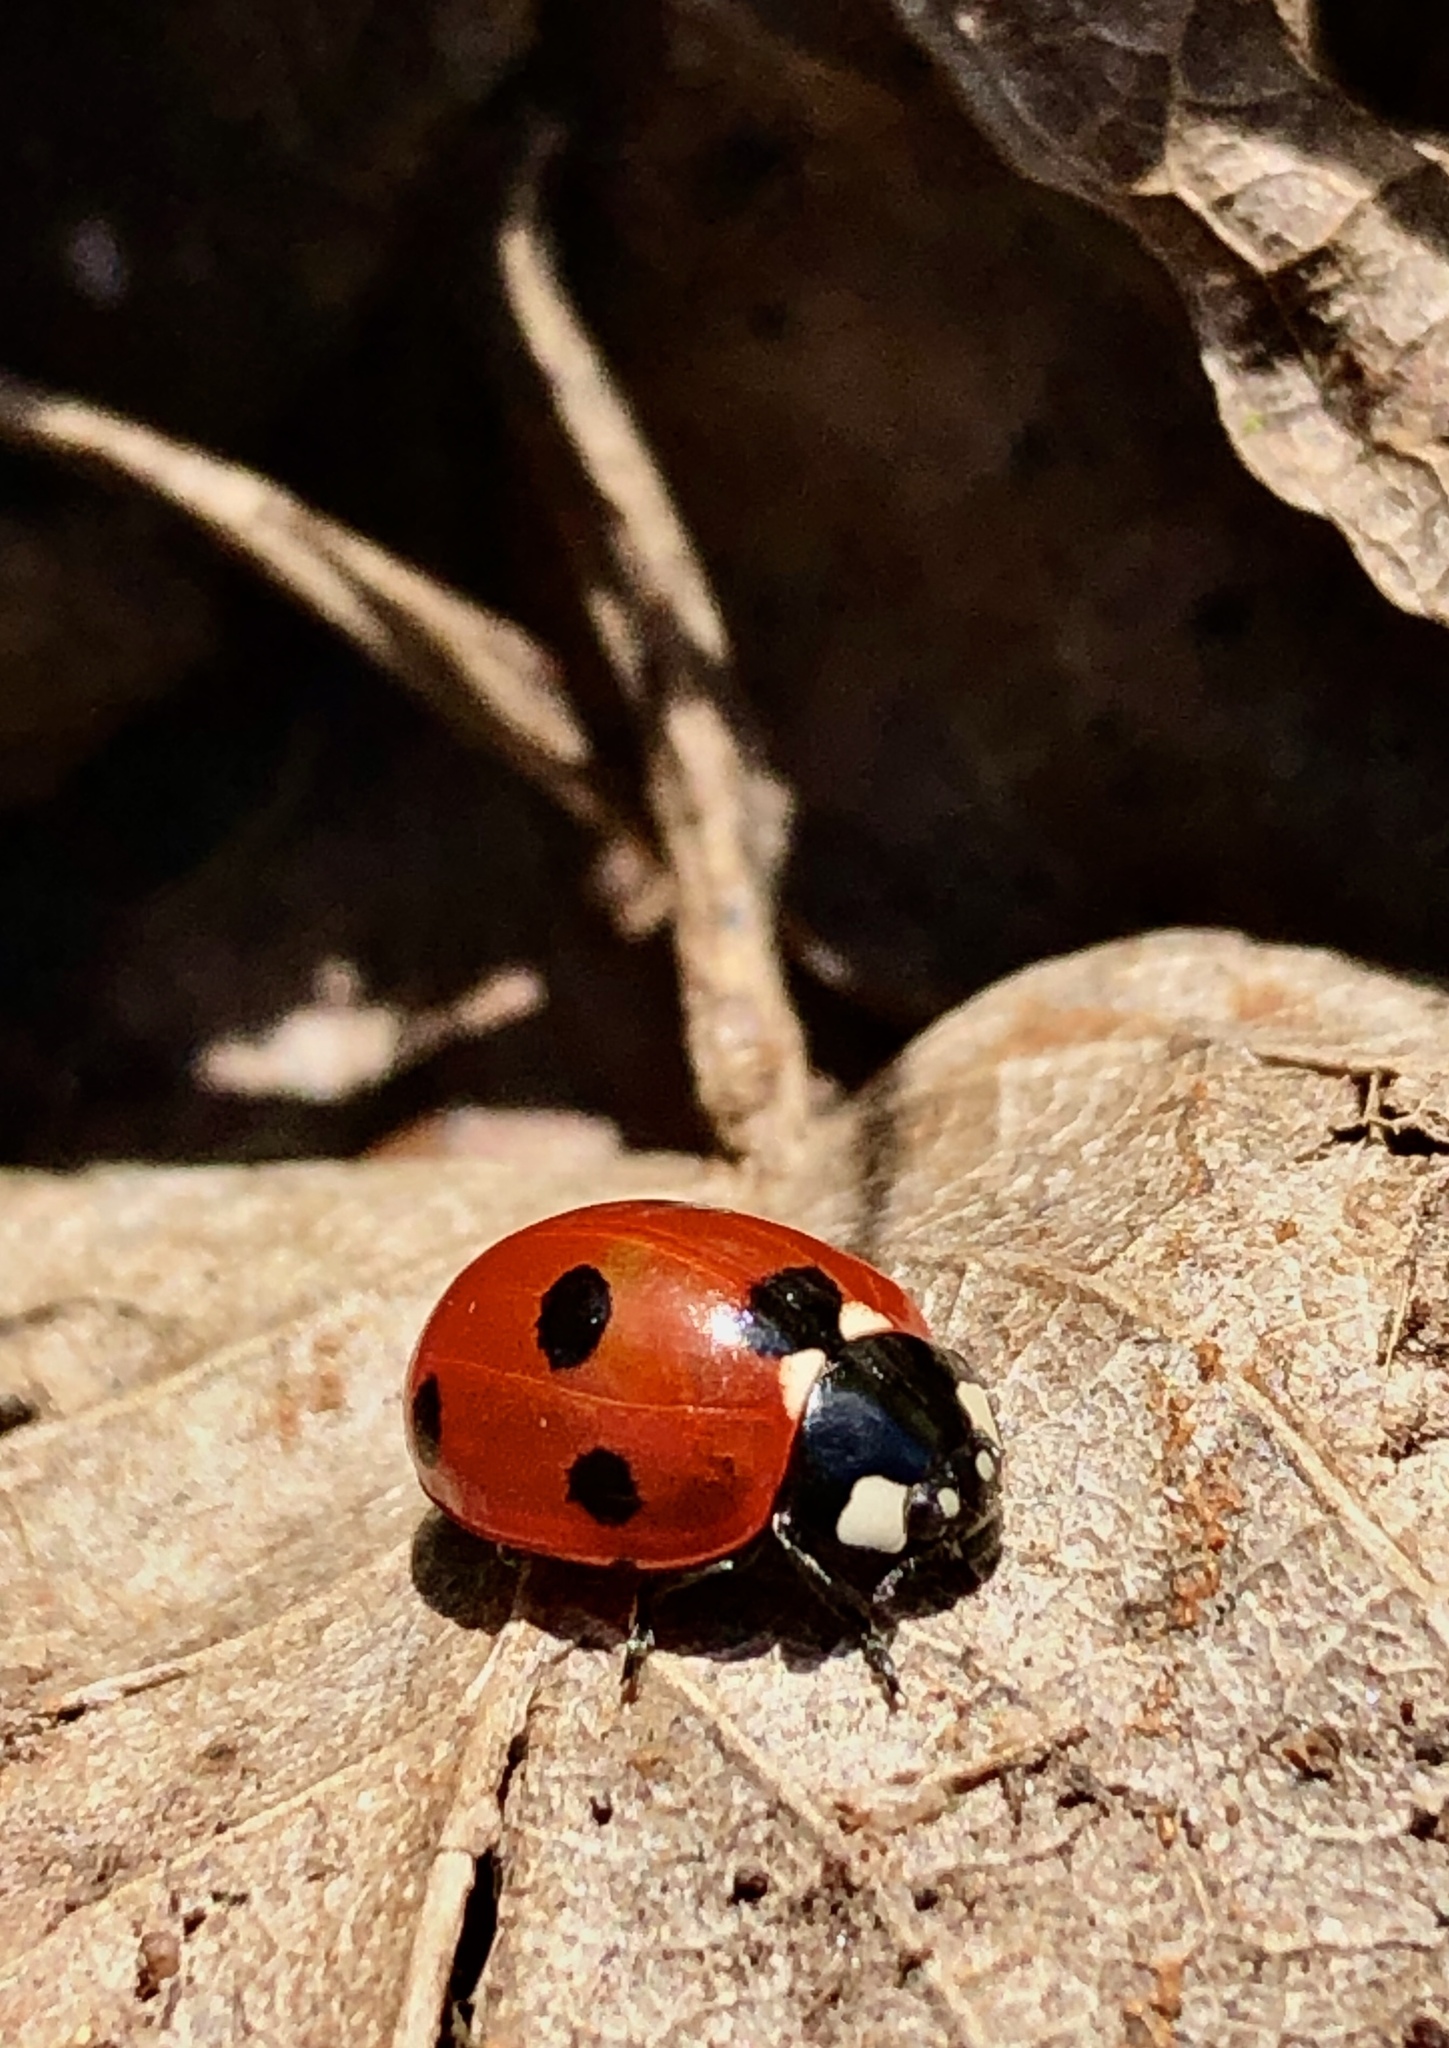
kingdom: Animalia
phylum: Arthropoda
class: Insecta
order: Coleoptera
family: Coccinellidae
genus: Coccinella
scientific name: Coccinella septempunctata
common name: Sevenspotted lady beetle
